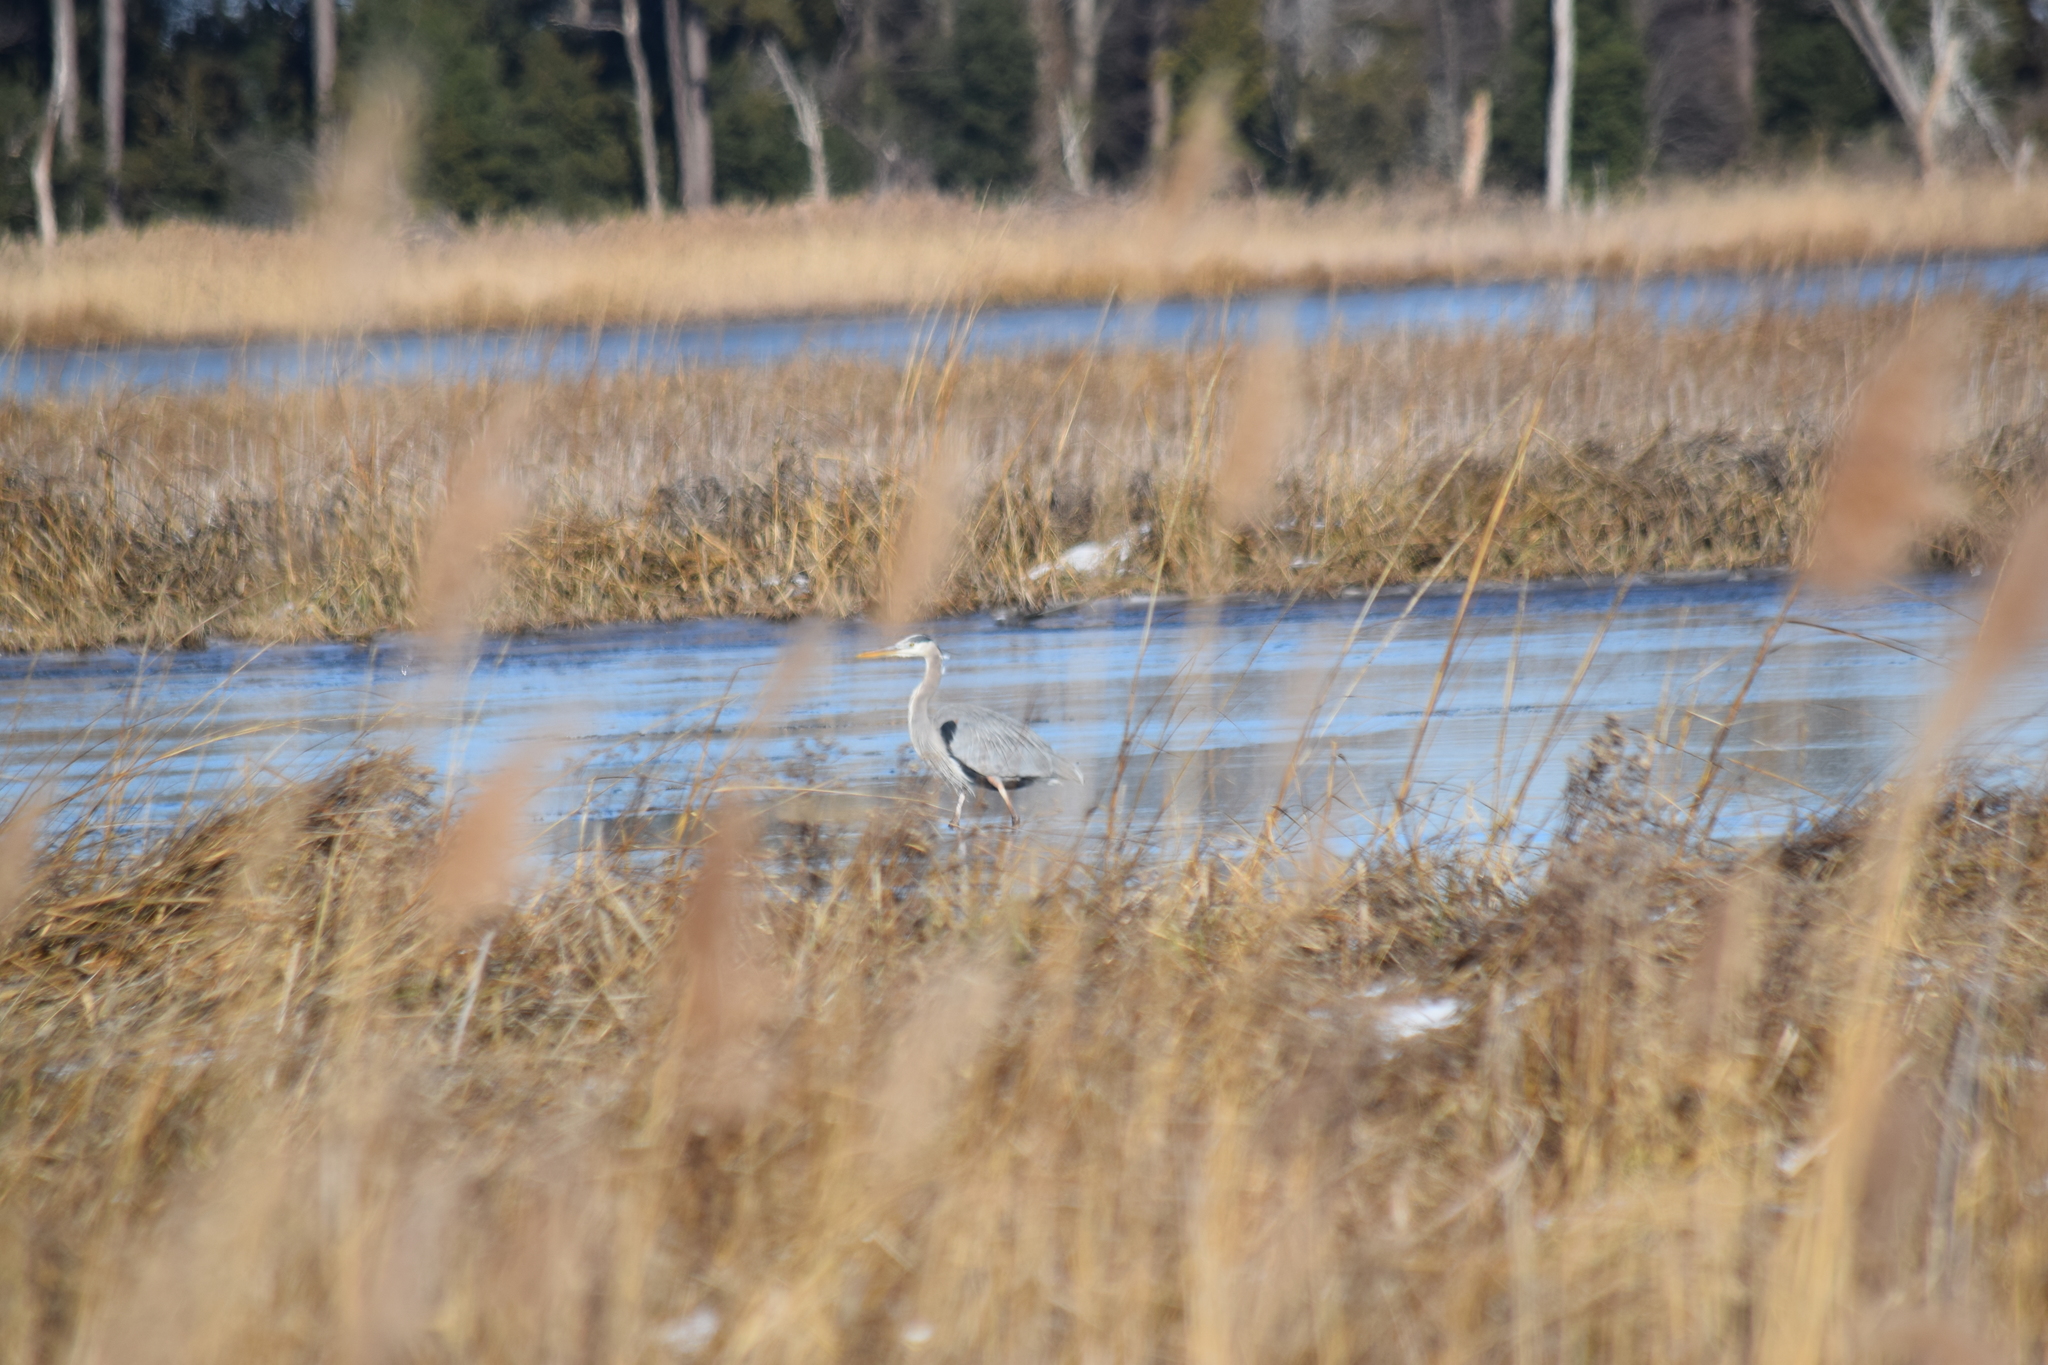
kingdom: Animalia
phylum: Chordata
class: Aves
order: Pelecaniformes
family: Ardeidae
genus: Ardea
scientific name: Ardea herodias
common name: Great blue heron
